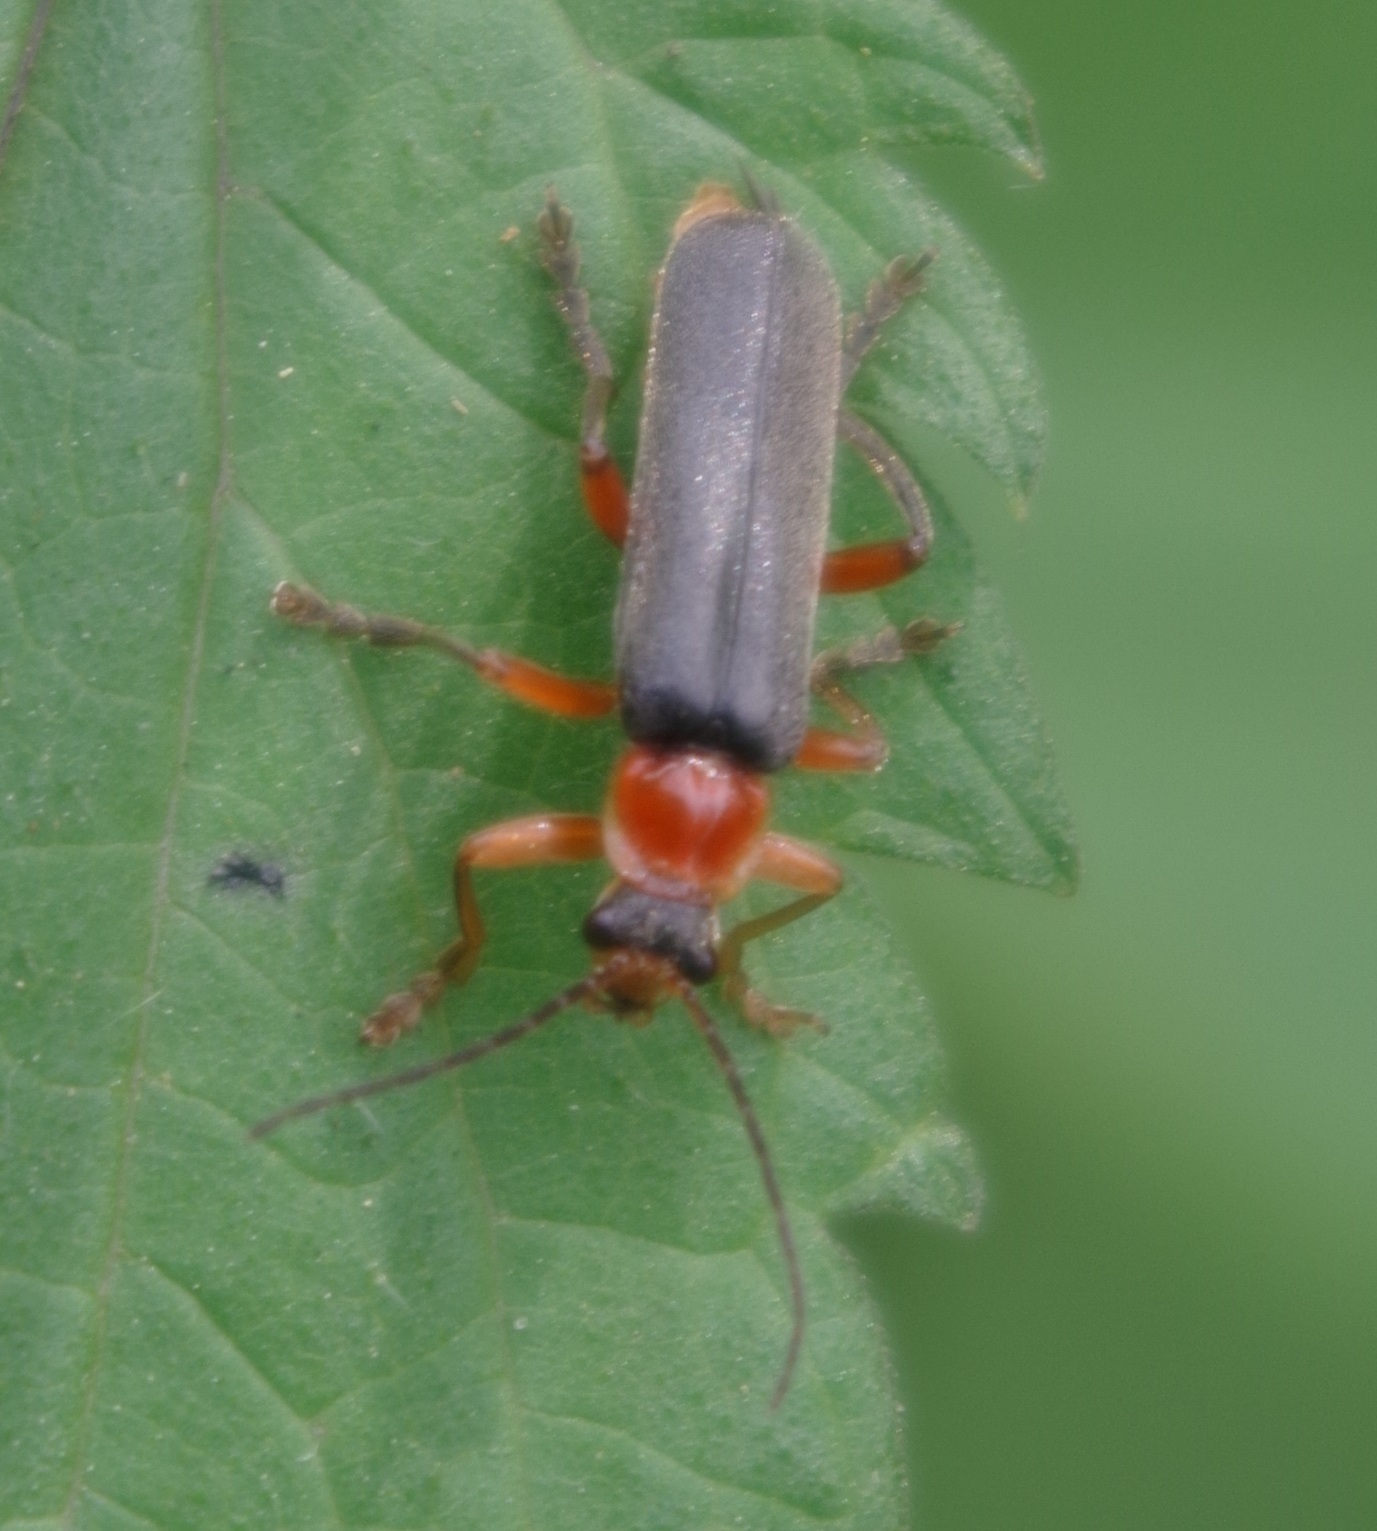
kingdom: Animalia
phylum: Arthropoda
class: Insecta
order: Coleoptera
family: Cantharidae
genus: Cantharis
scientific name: Cantharis pellucida
